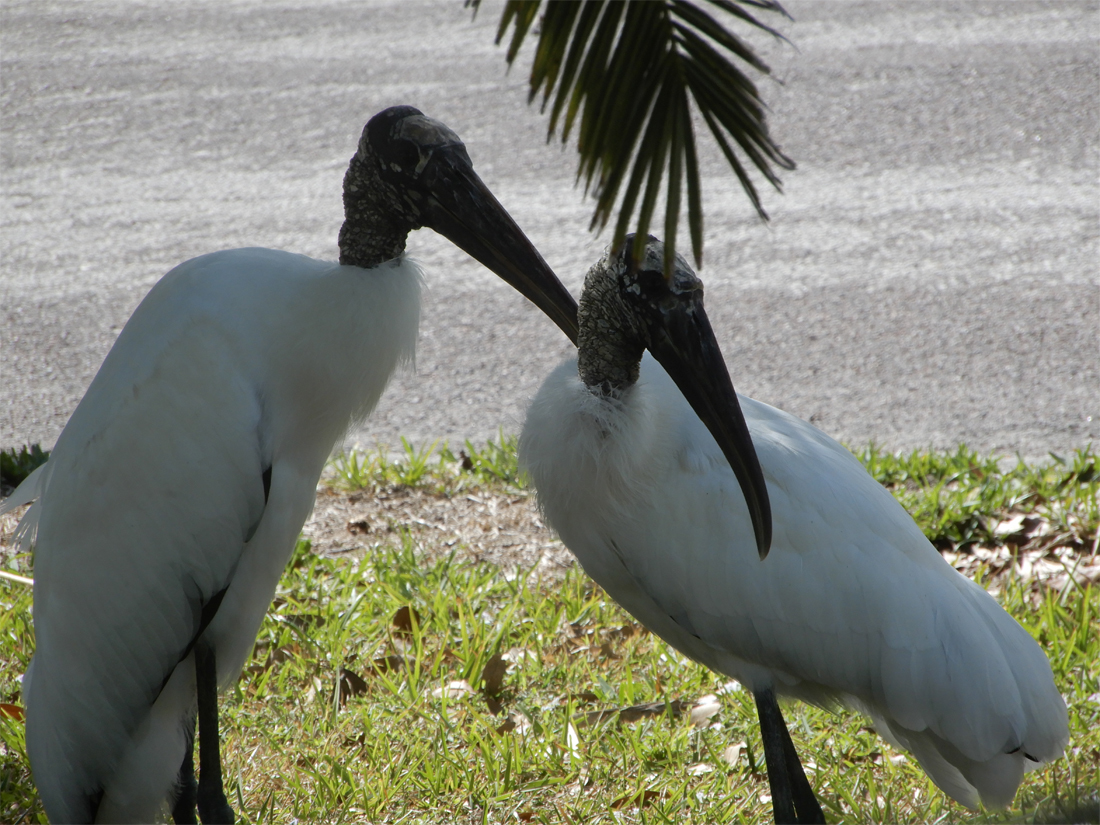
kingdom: Animalia
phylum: Chordata
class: Aves
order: Ciconiiformes
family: Ciconiidae
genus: Mycteria
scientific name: Mycteria americana
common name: Wood stork
